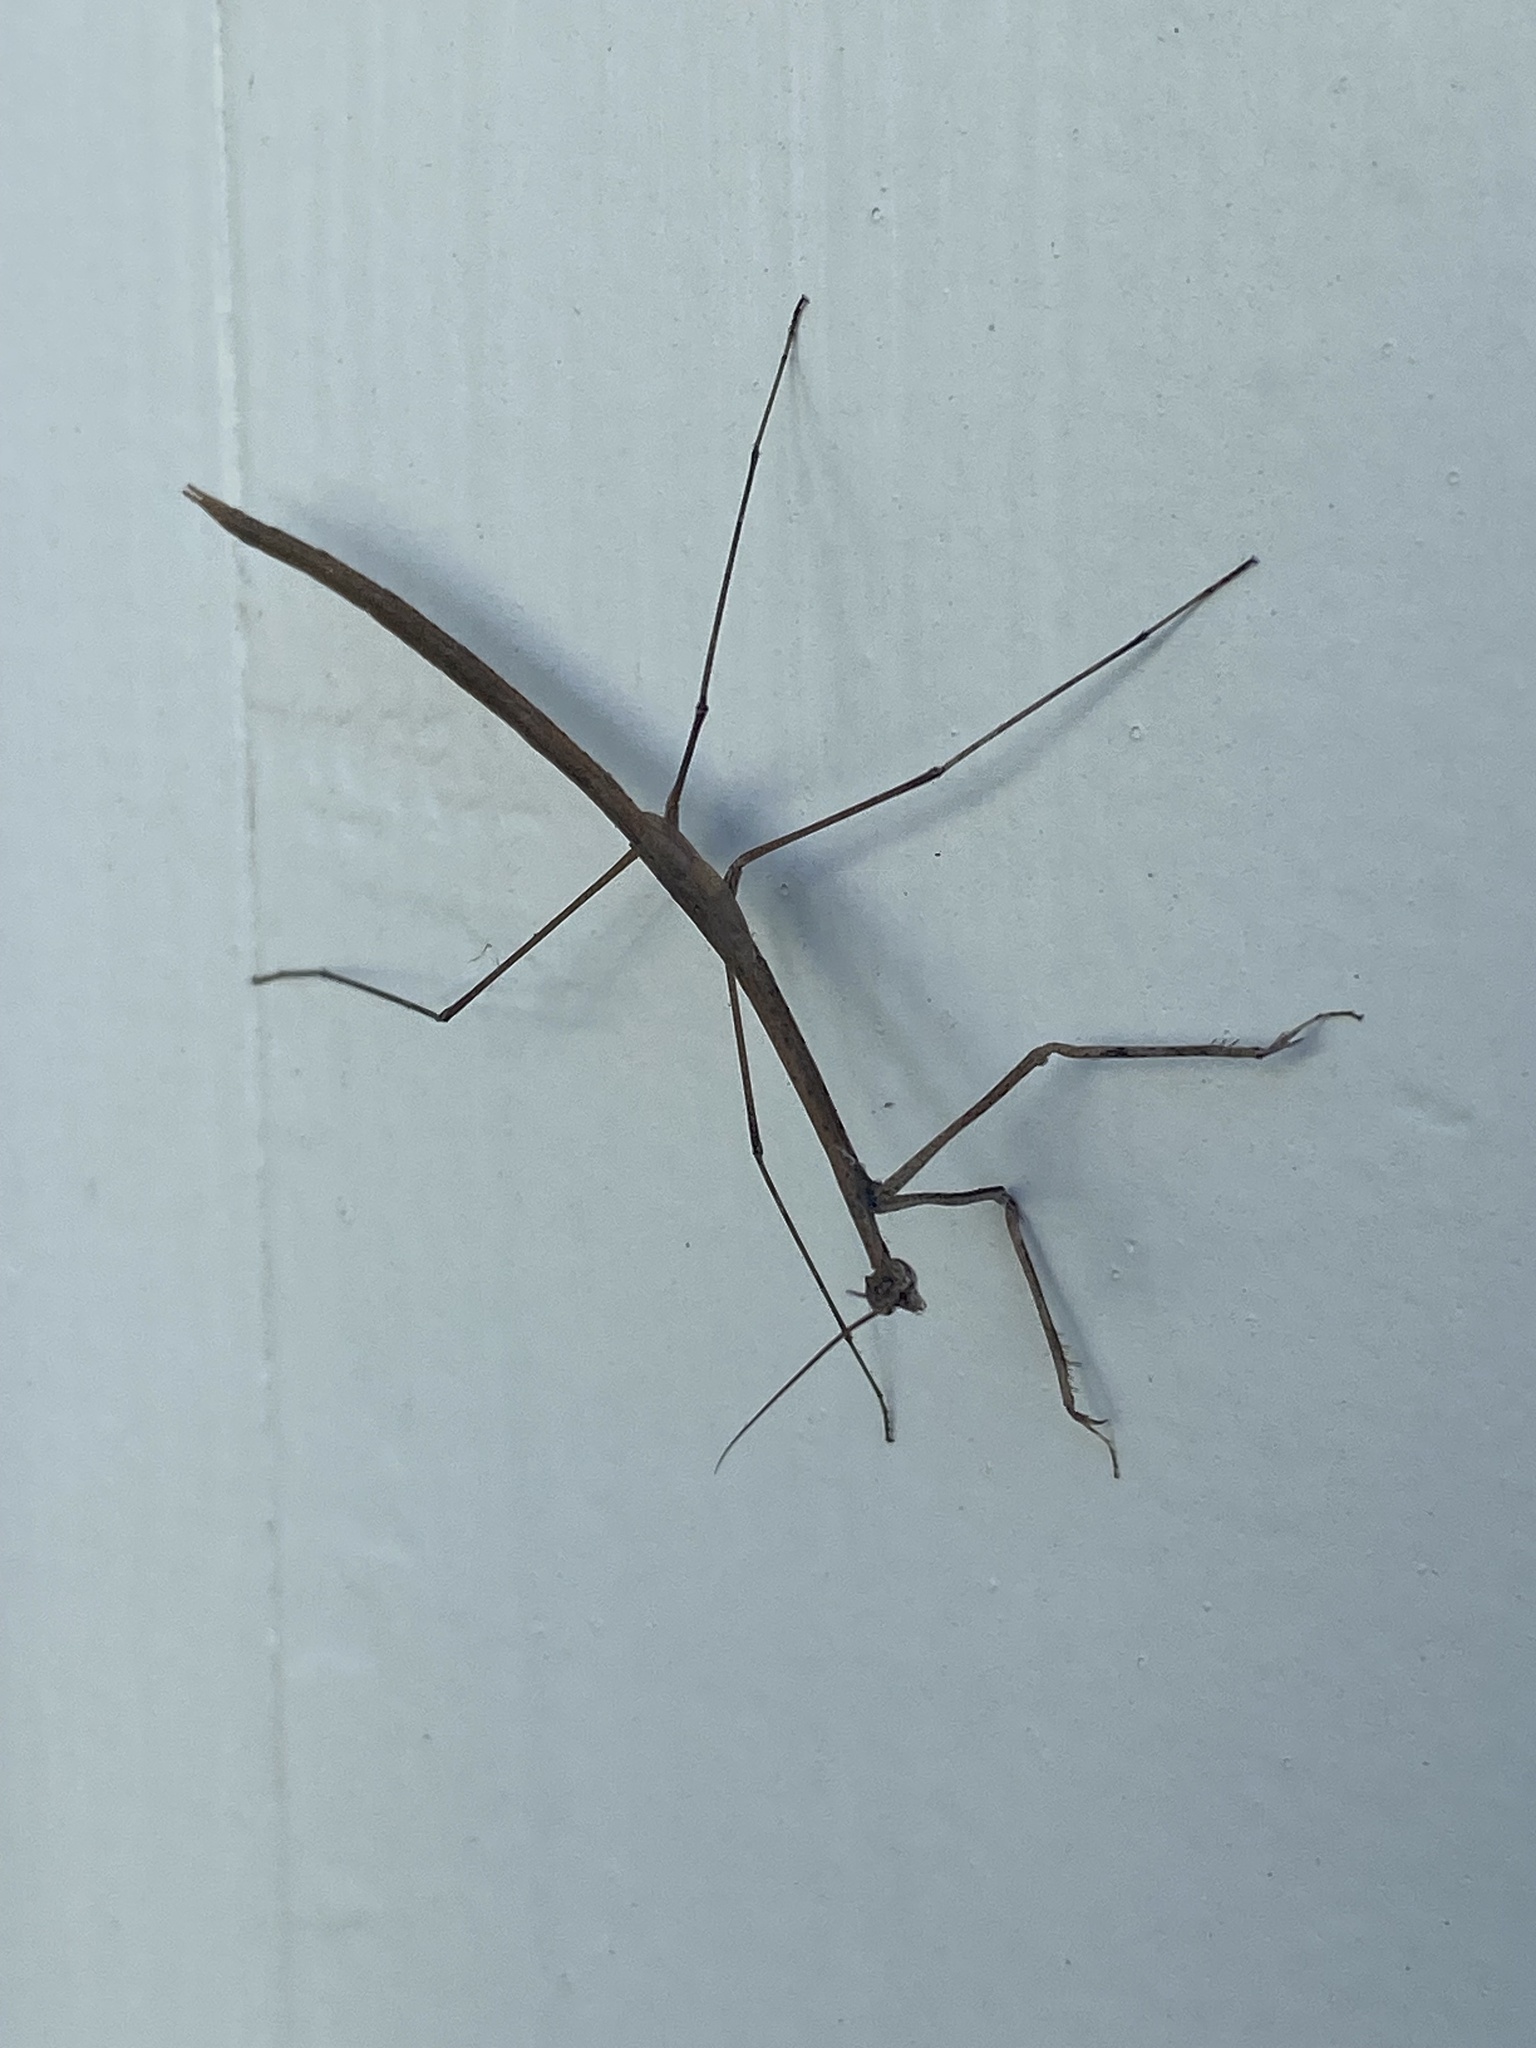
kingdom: Animalia
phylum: Arthropoda
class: Insecta
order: Mantodea
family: Thespidae
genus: Thesprotia
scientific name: Thesprotia graminis
